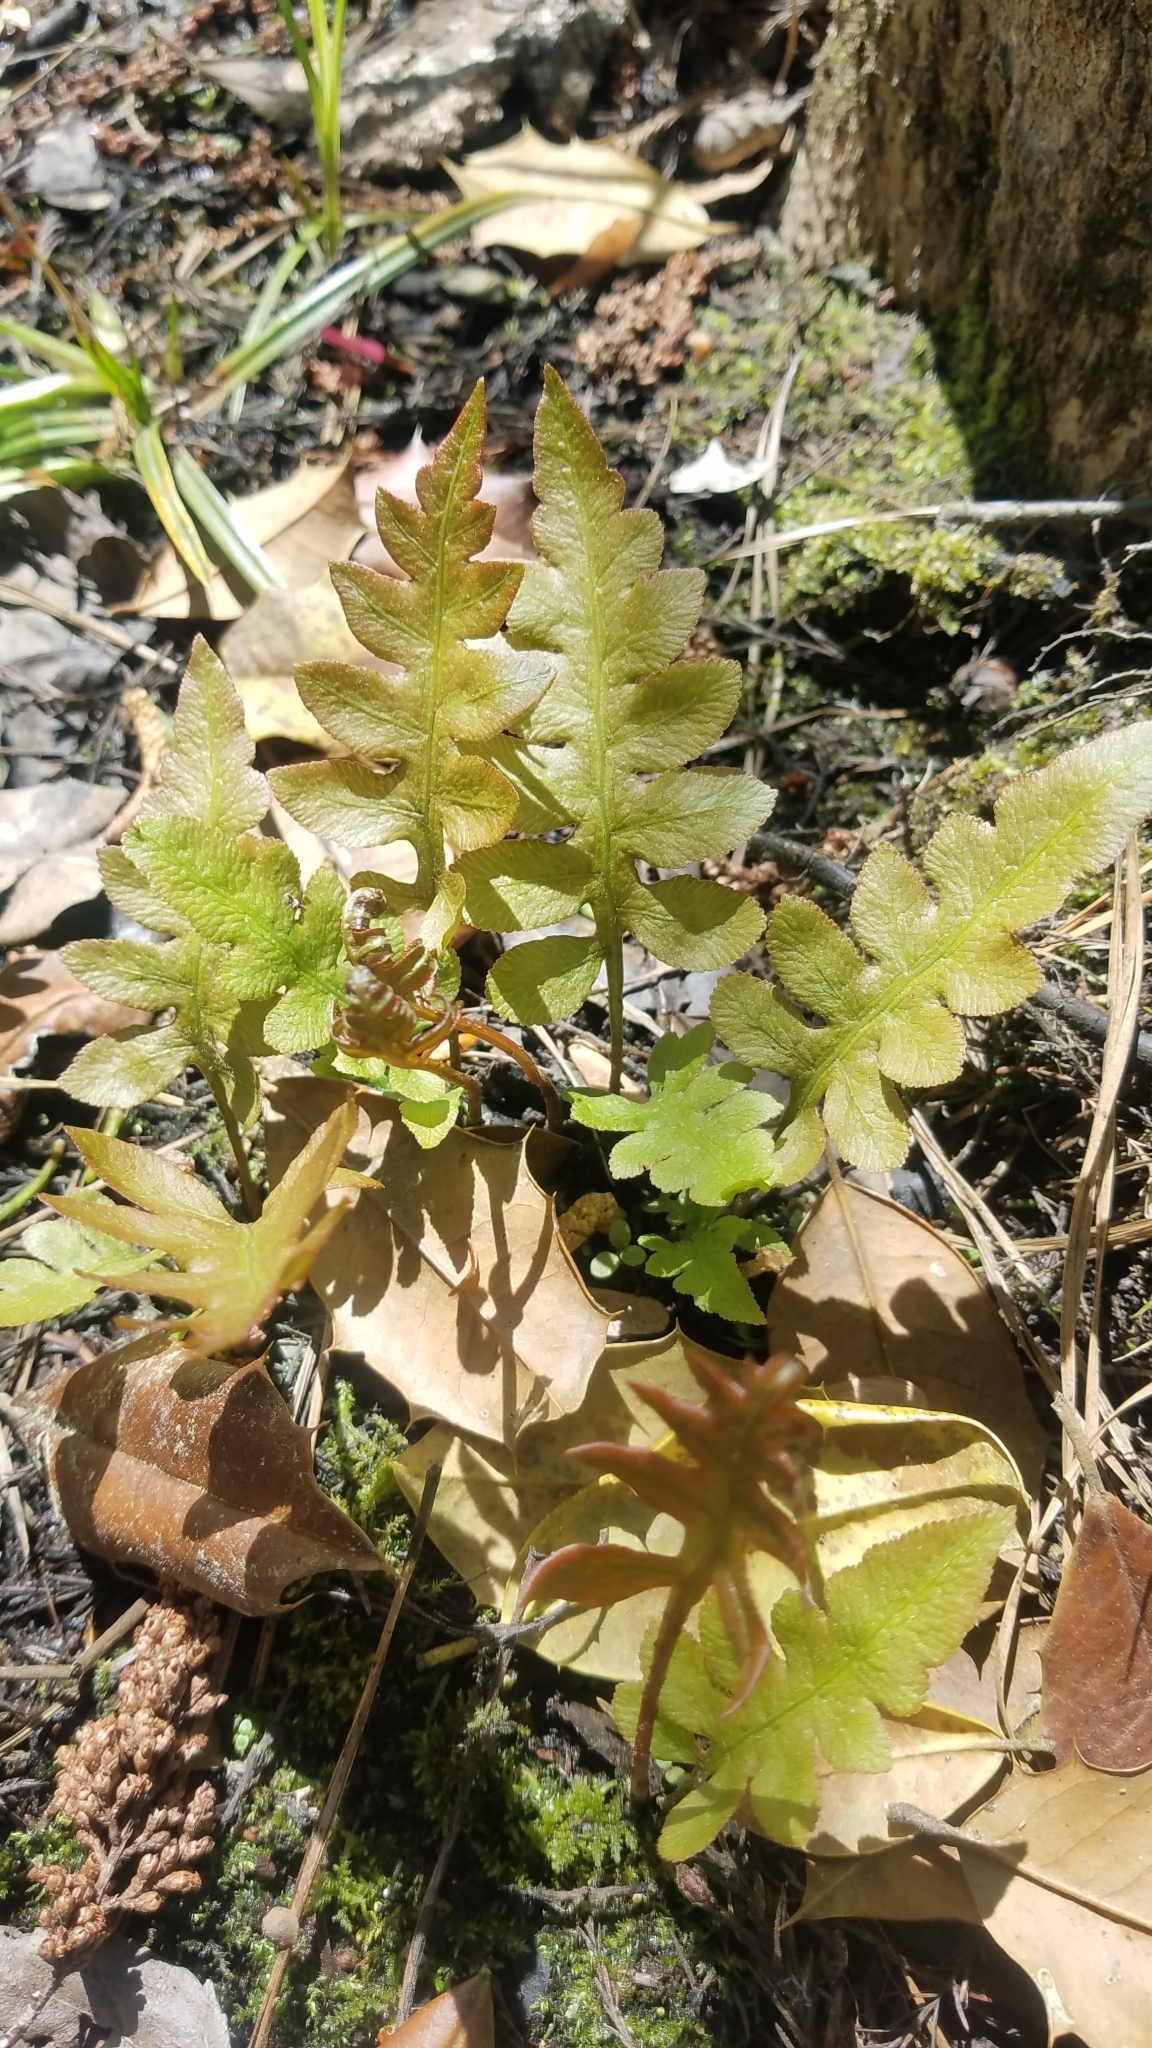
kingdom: Plantae
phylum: Tracheophyta
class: Polypodiopsida
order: Polypodiales
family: Blechnaceae
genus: Lorinseria
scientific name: Lorinseria areolata
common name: Dwarf chain fern
